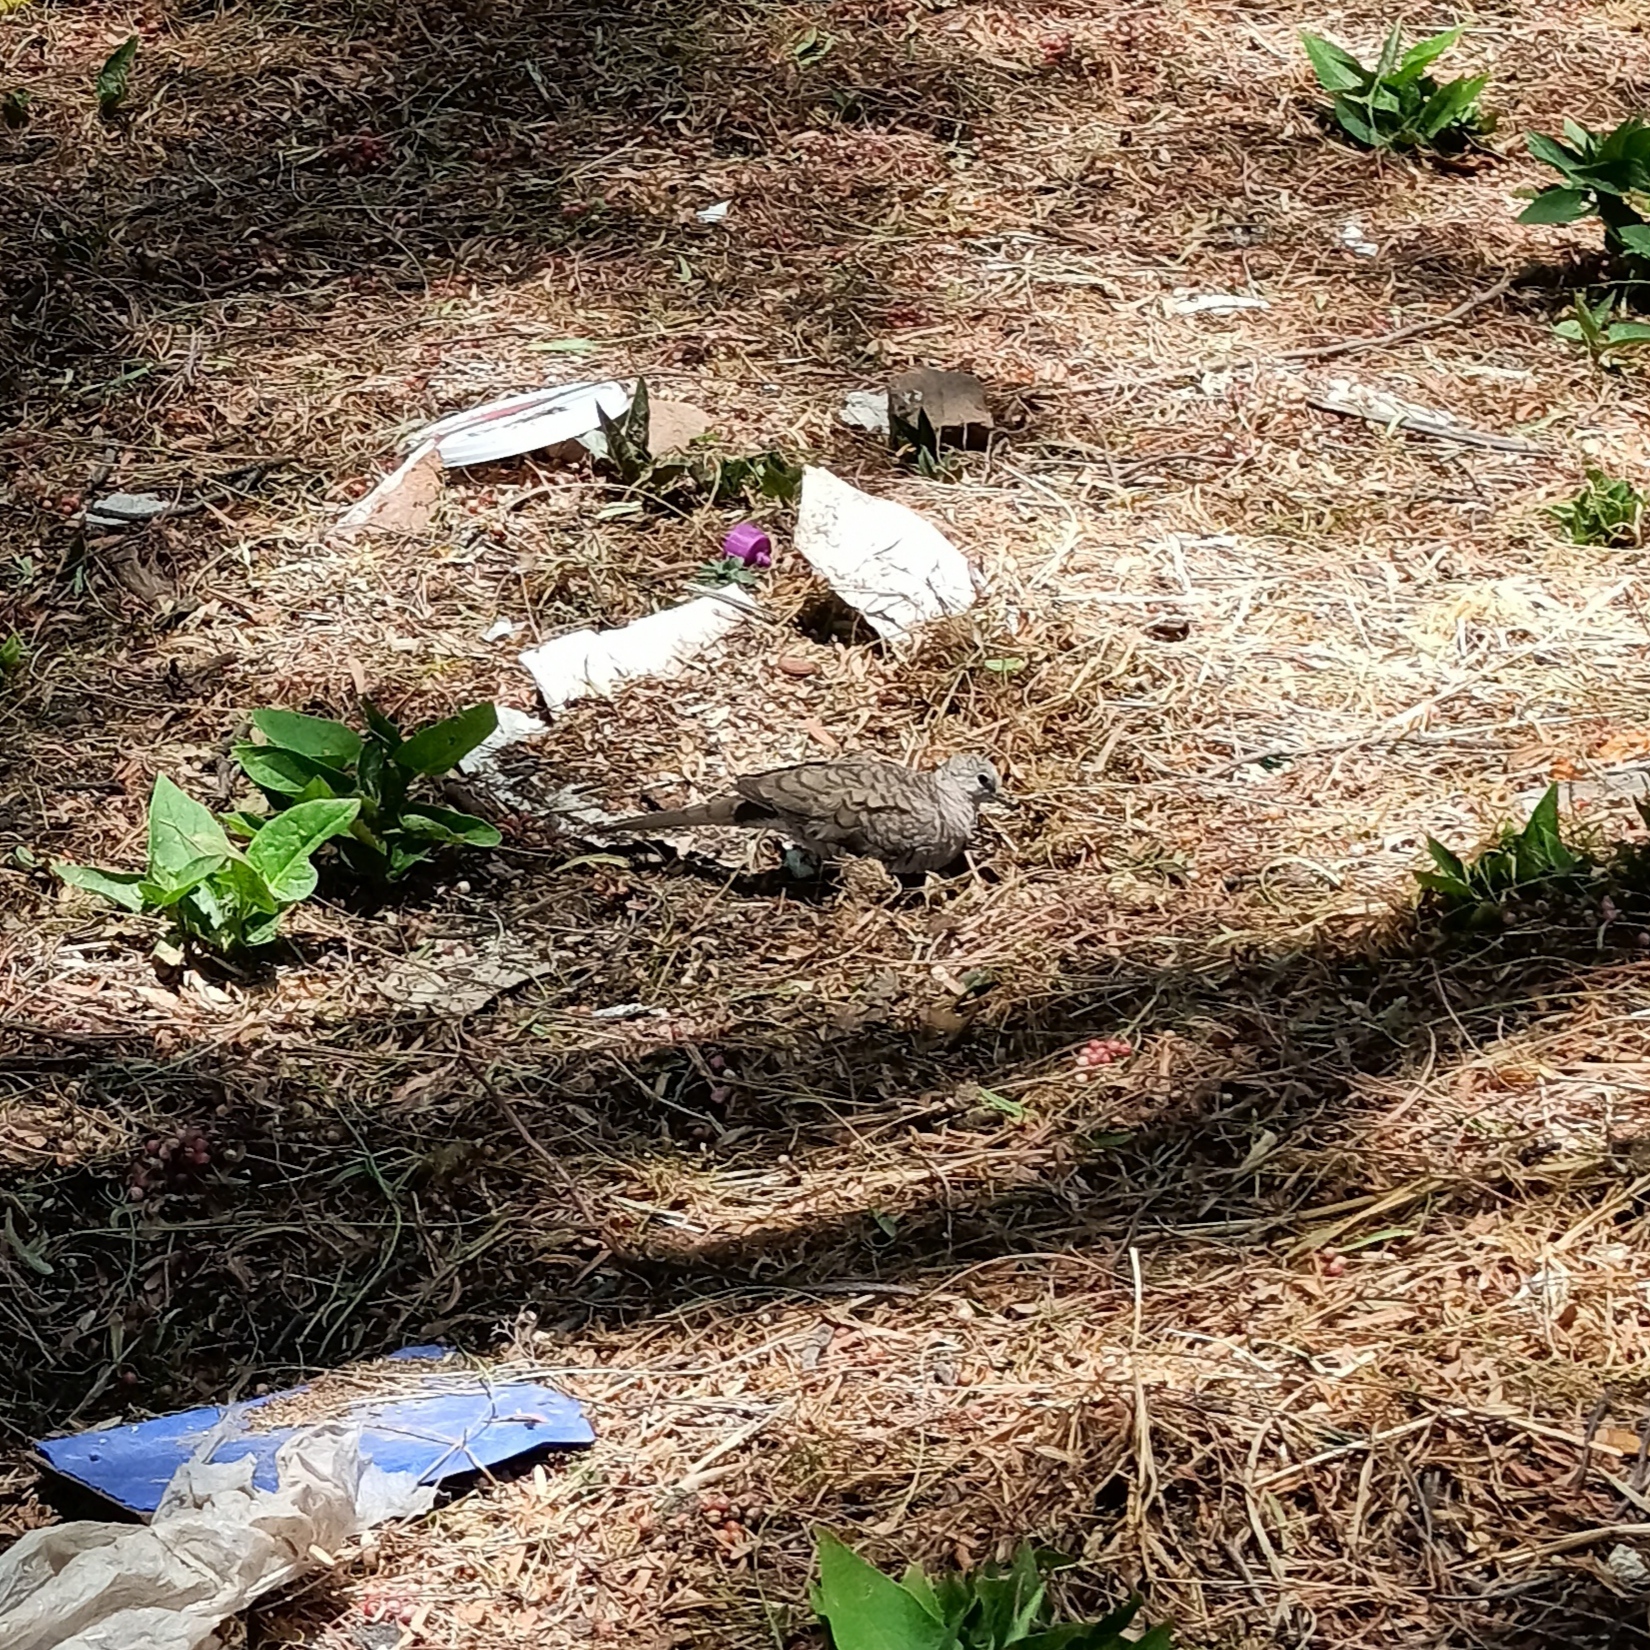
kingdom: Animalia
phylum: Chordata
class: Aves
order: Columbiformes
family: Columbidae
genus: Columbina
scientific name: Columbina inca
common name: Inca dove
